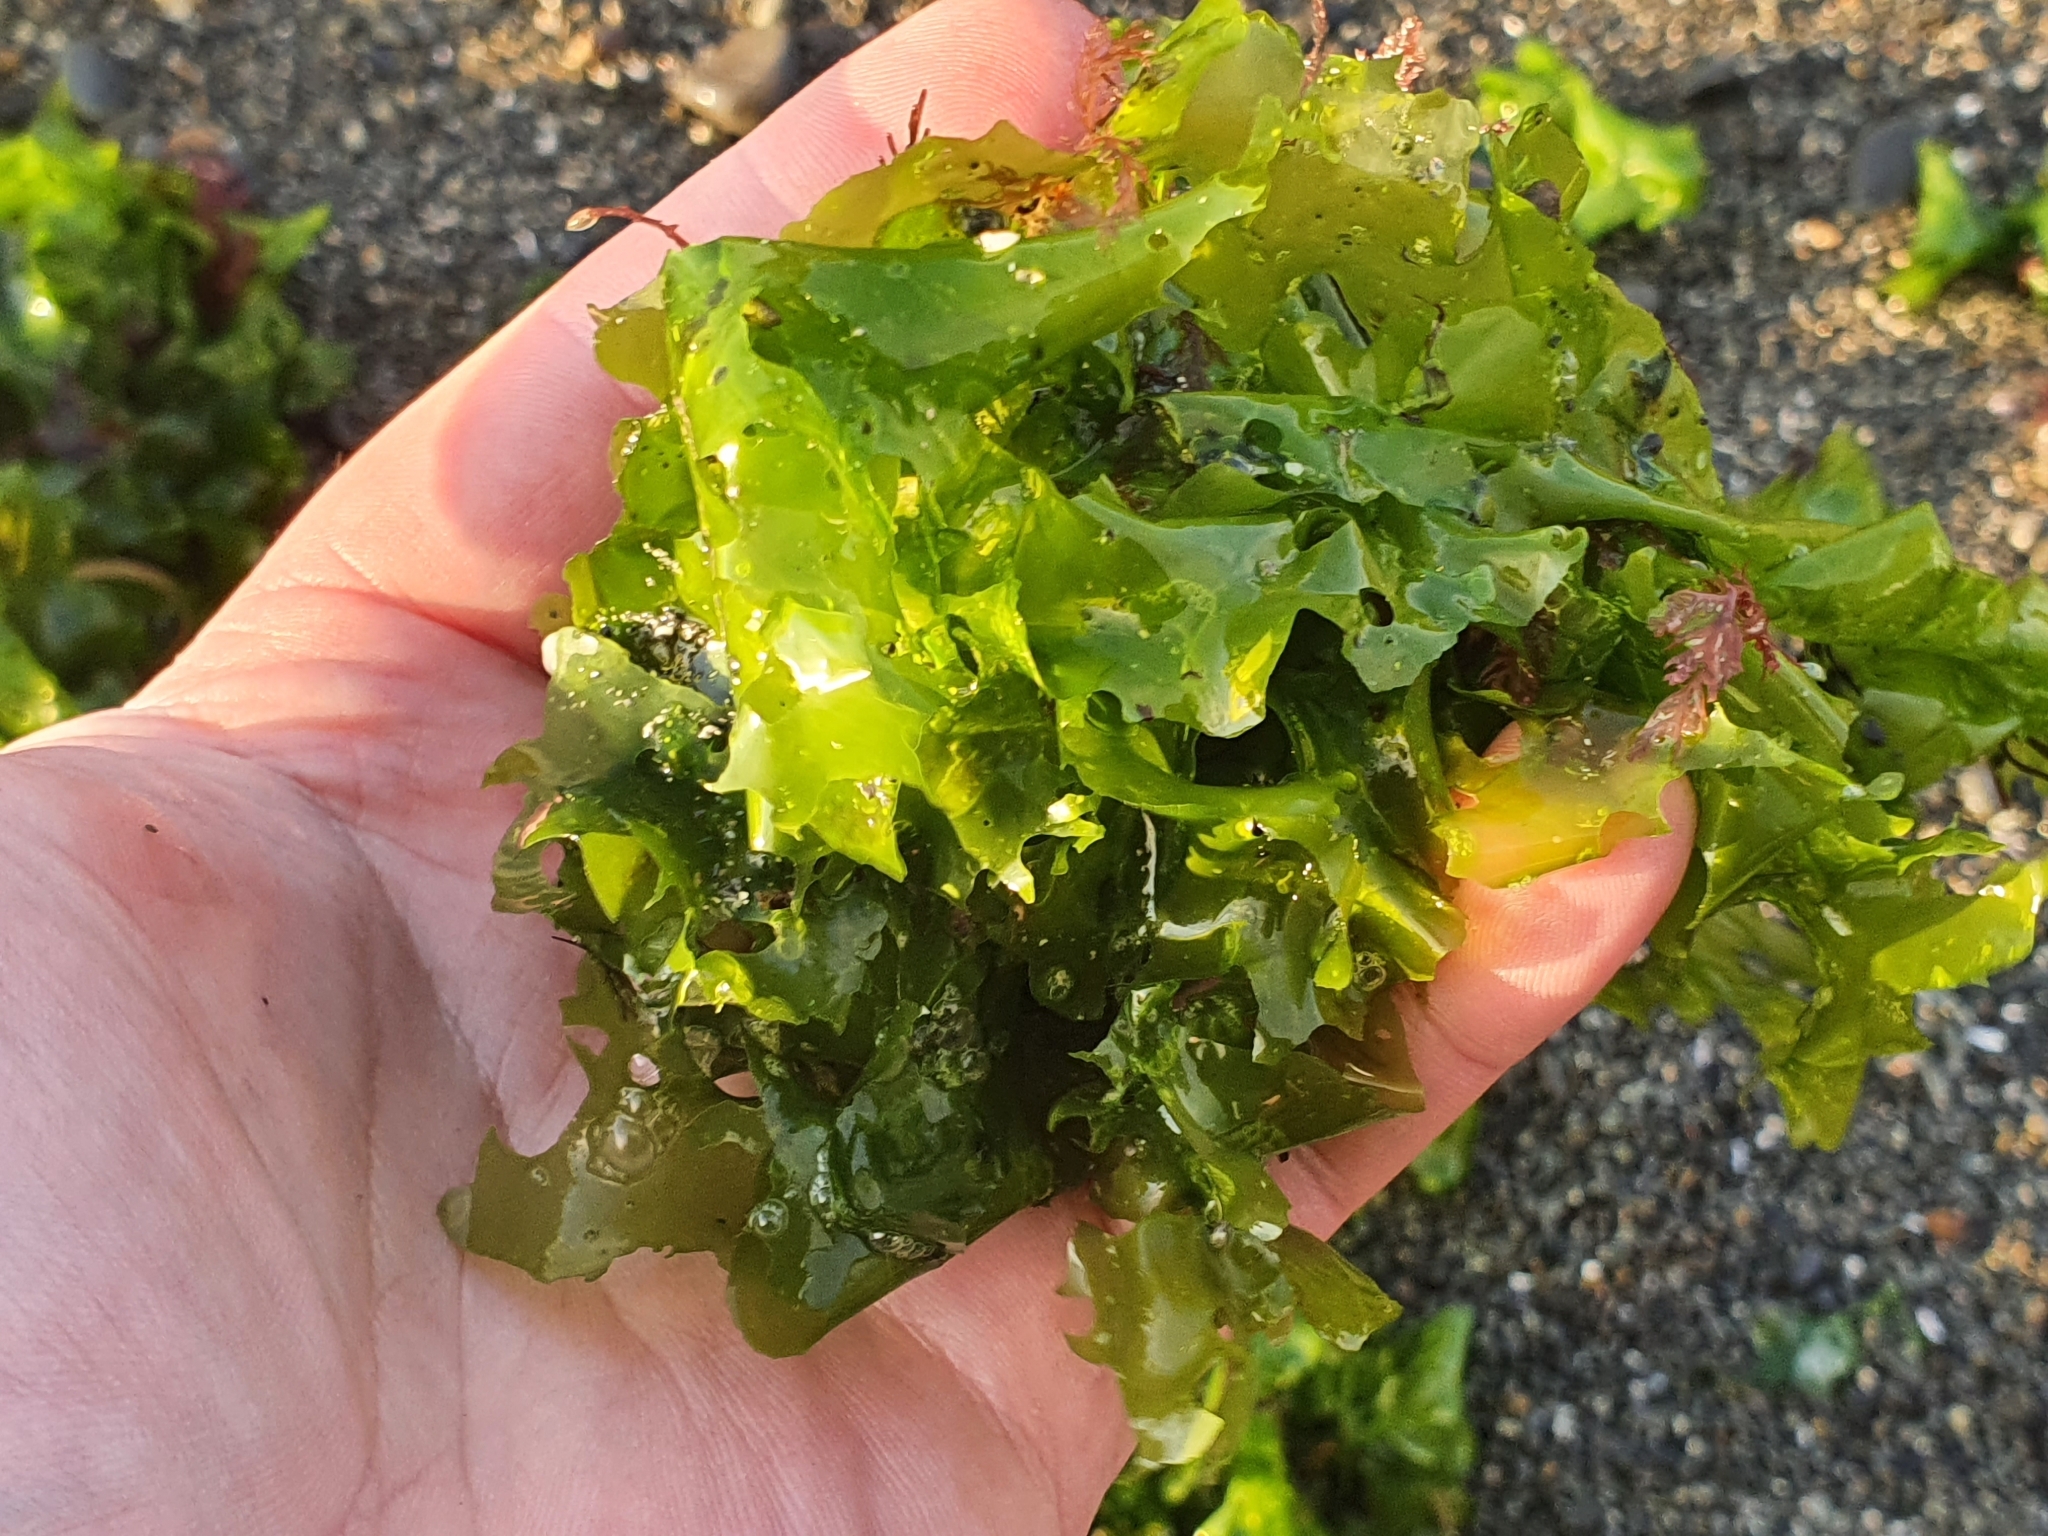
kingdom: Plantae
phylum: Chlorophyta
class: Ulvophyceae
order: Ulvales
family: Ulvaceae
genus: Ulva
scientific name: Ulva
